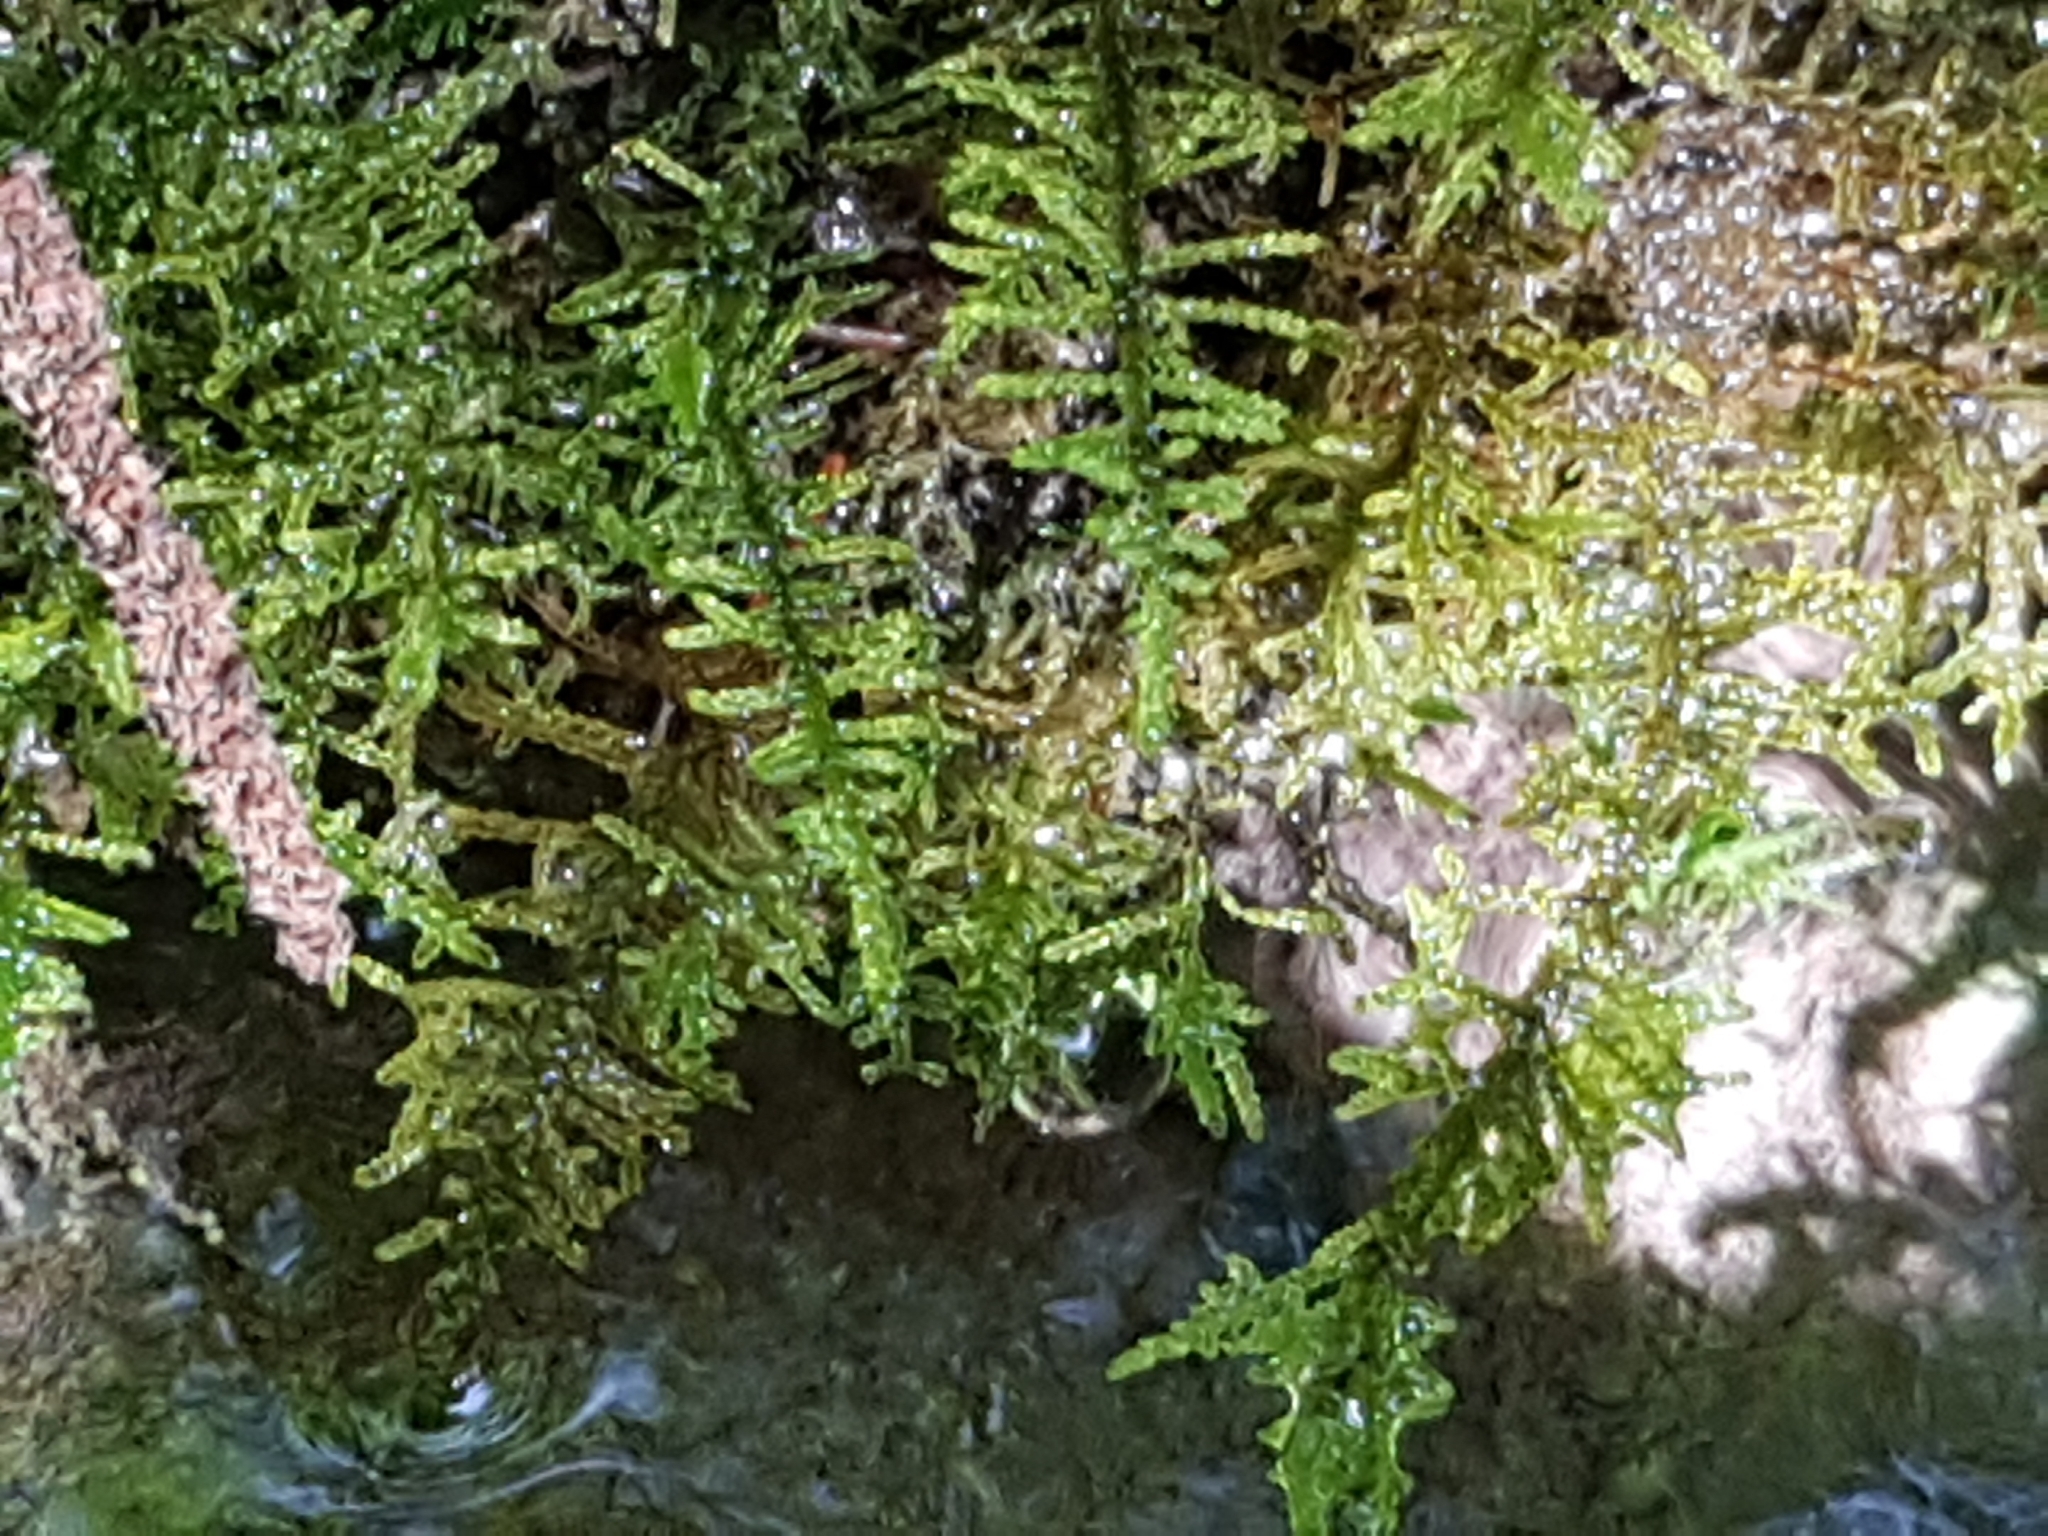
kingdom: Plantae
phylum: Bryophyta
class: Bryopsida
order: Hypnales
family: Amblystegiaceae
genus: Palustriella
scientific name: Palustriella commutata
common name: Curled hook-moss
